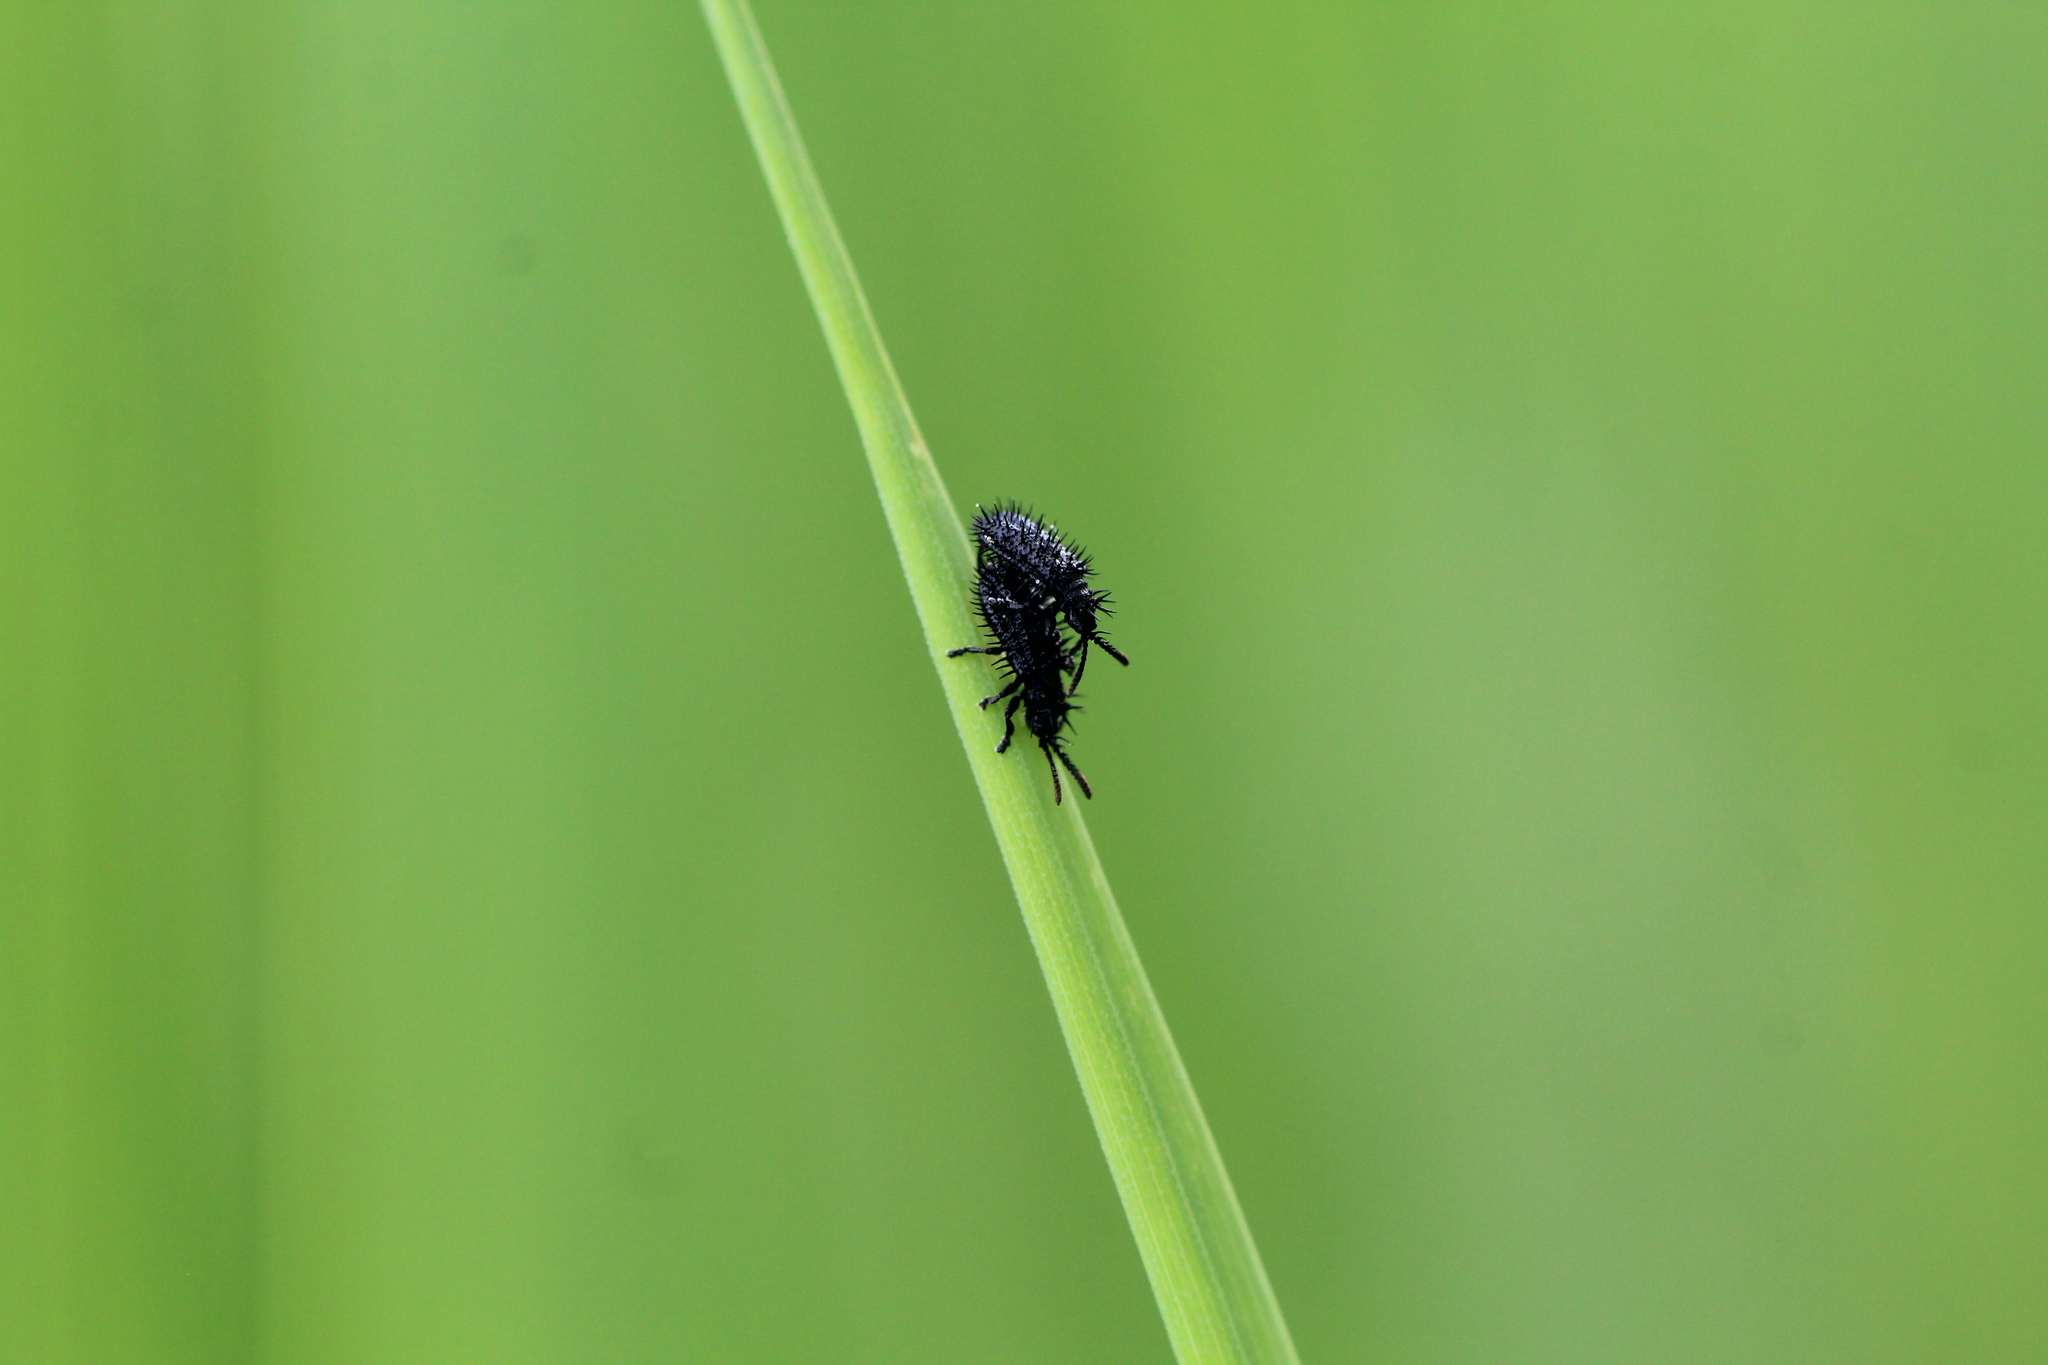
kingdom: Animalia
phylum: Arthropoda
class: Insecta
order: Coleoptera
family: Chrysomelidae
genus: Hispa
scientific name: Hispa atra
